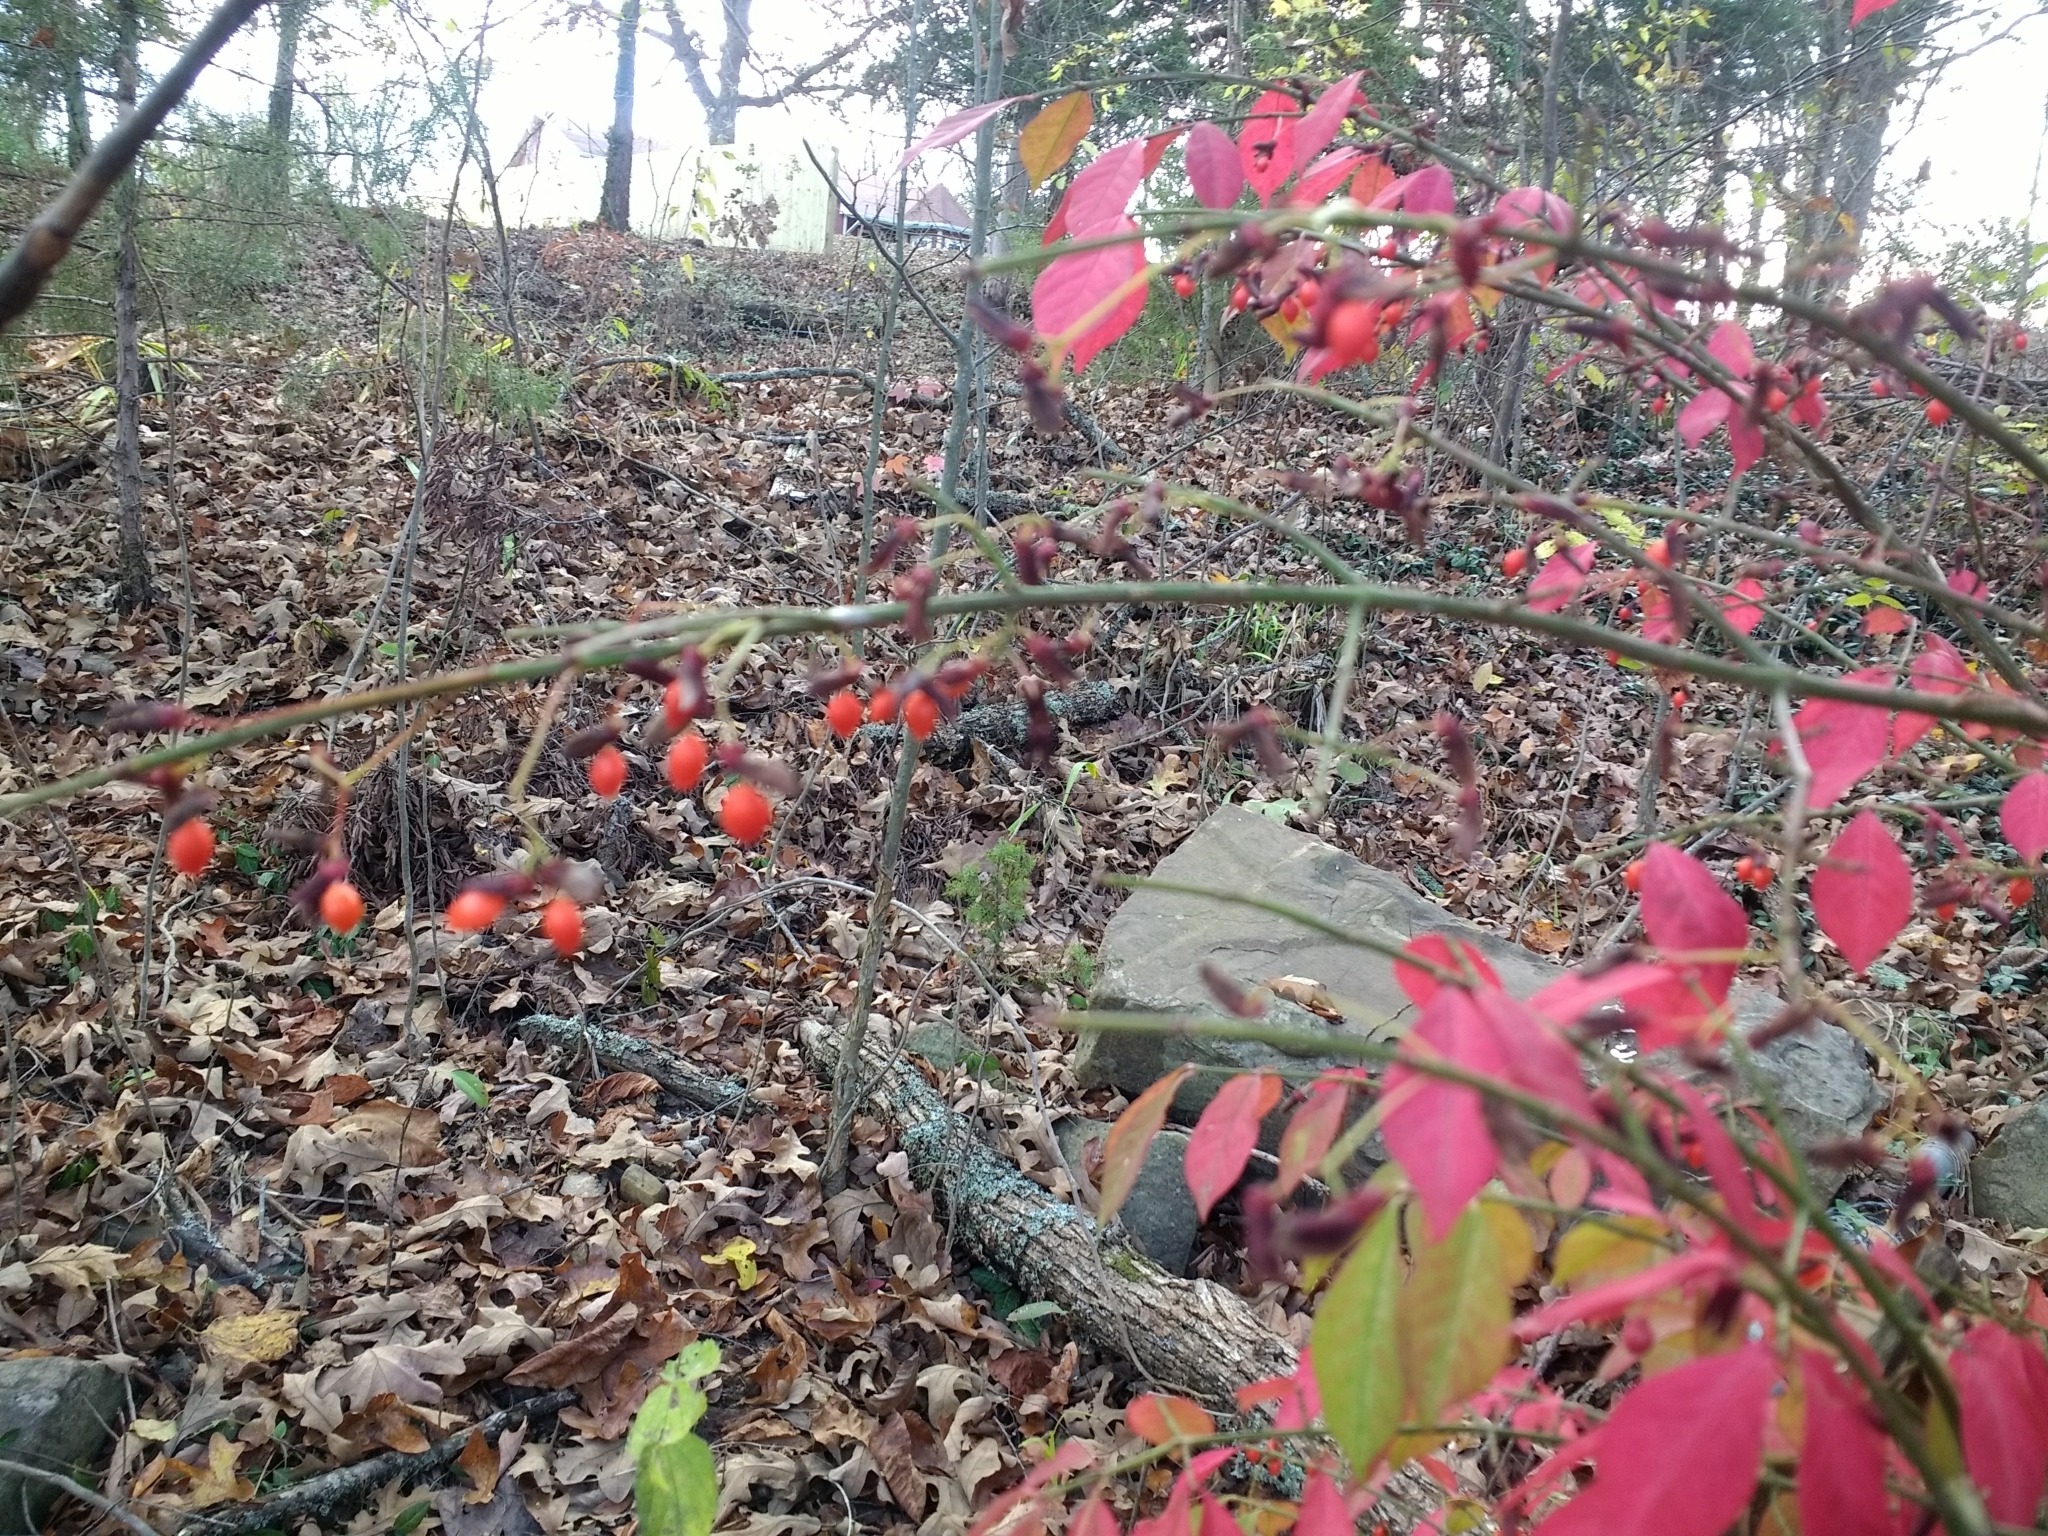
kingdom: Plantae
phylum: Tracheophyta
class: Magnoliopsida
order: Celastrales
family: Celastraceae
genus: Euonymus
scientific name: Euonymus alatus
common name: Winged euonymus
